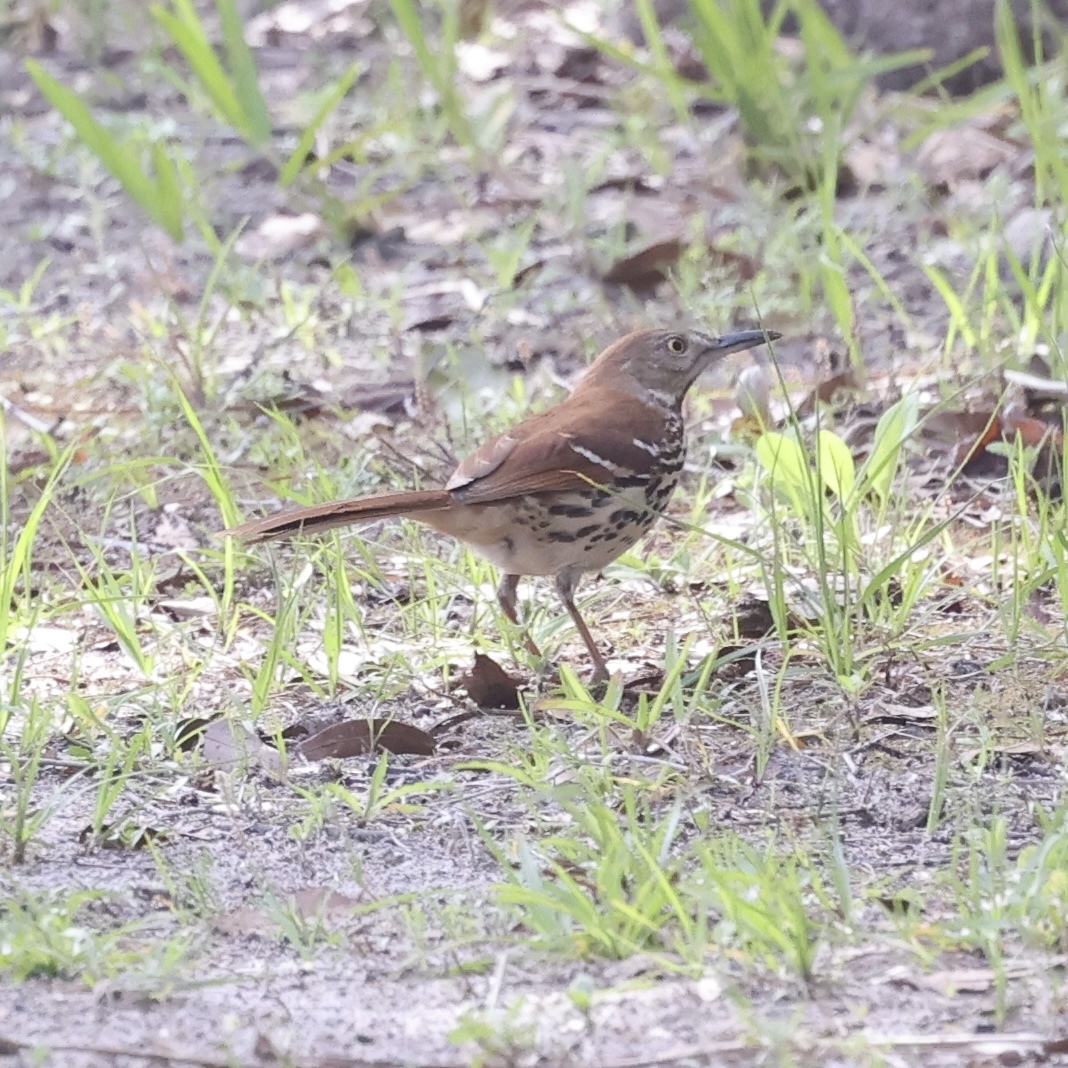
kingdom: Animalia
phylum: Chordata
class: Aves
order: Passeriformes
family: Mimidae
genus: Toxostoma
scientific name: Toxostoma rufum
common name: Brown thrasher
